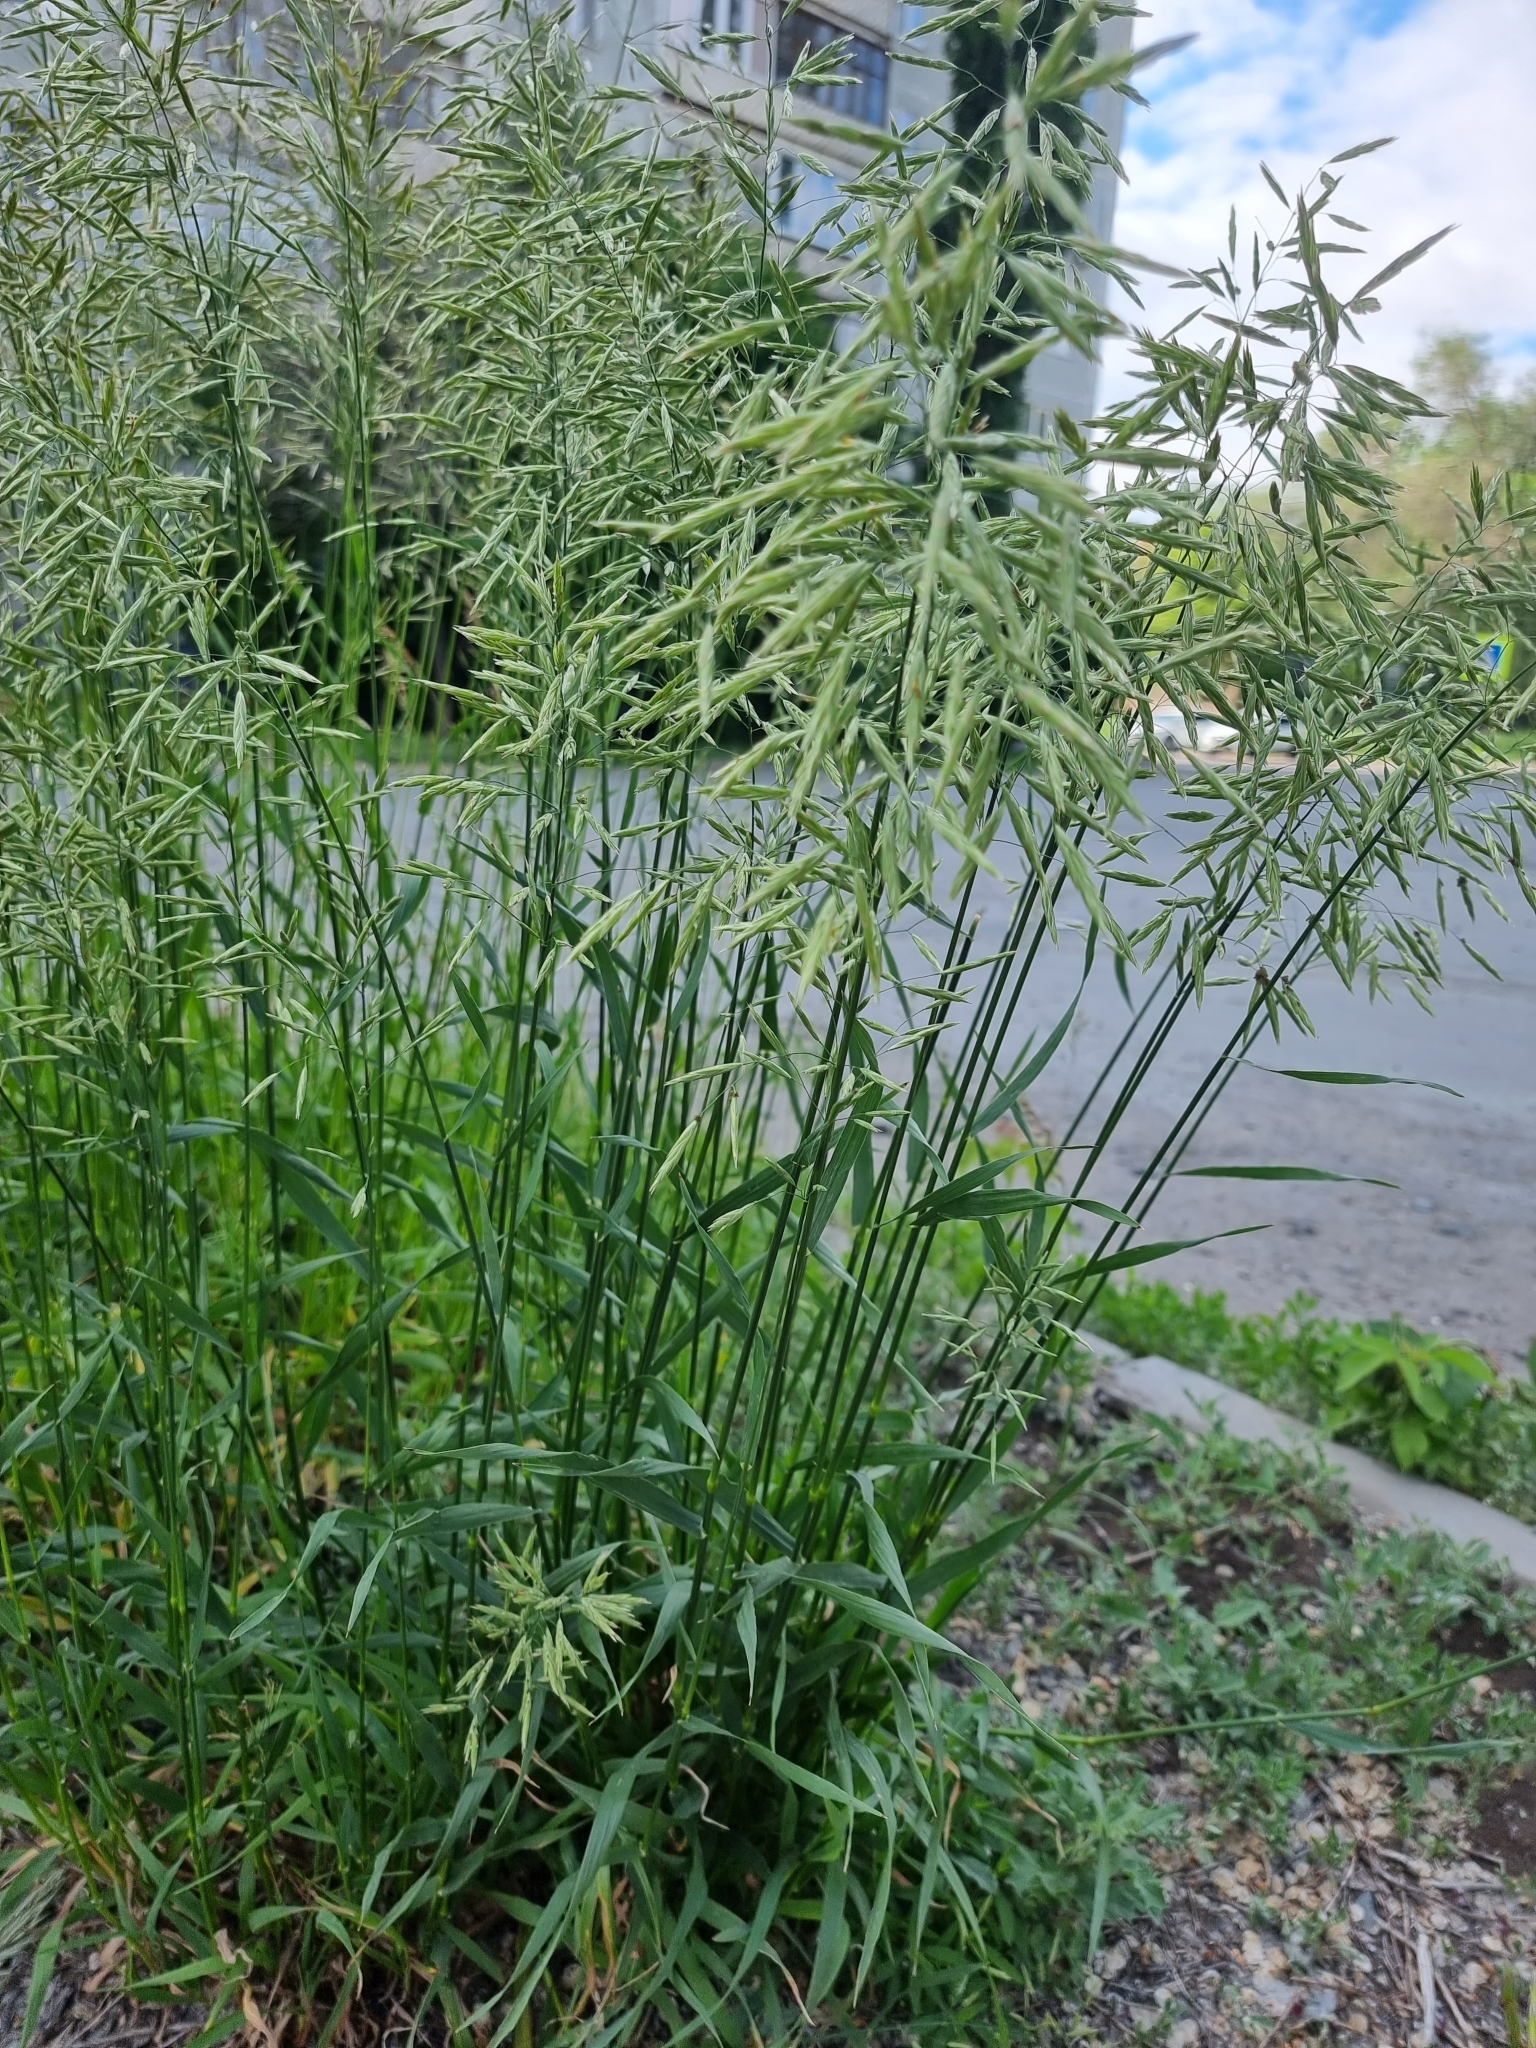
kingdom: Plantae
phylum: Tracheophyta
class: Liliopsida
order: Poales
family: Poaceae
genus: Bromus
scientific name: Bromus inermis
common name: Smooth brome
